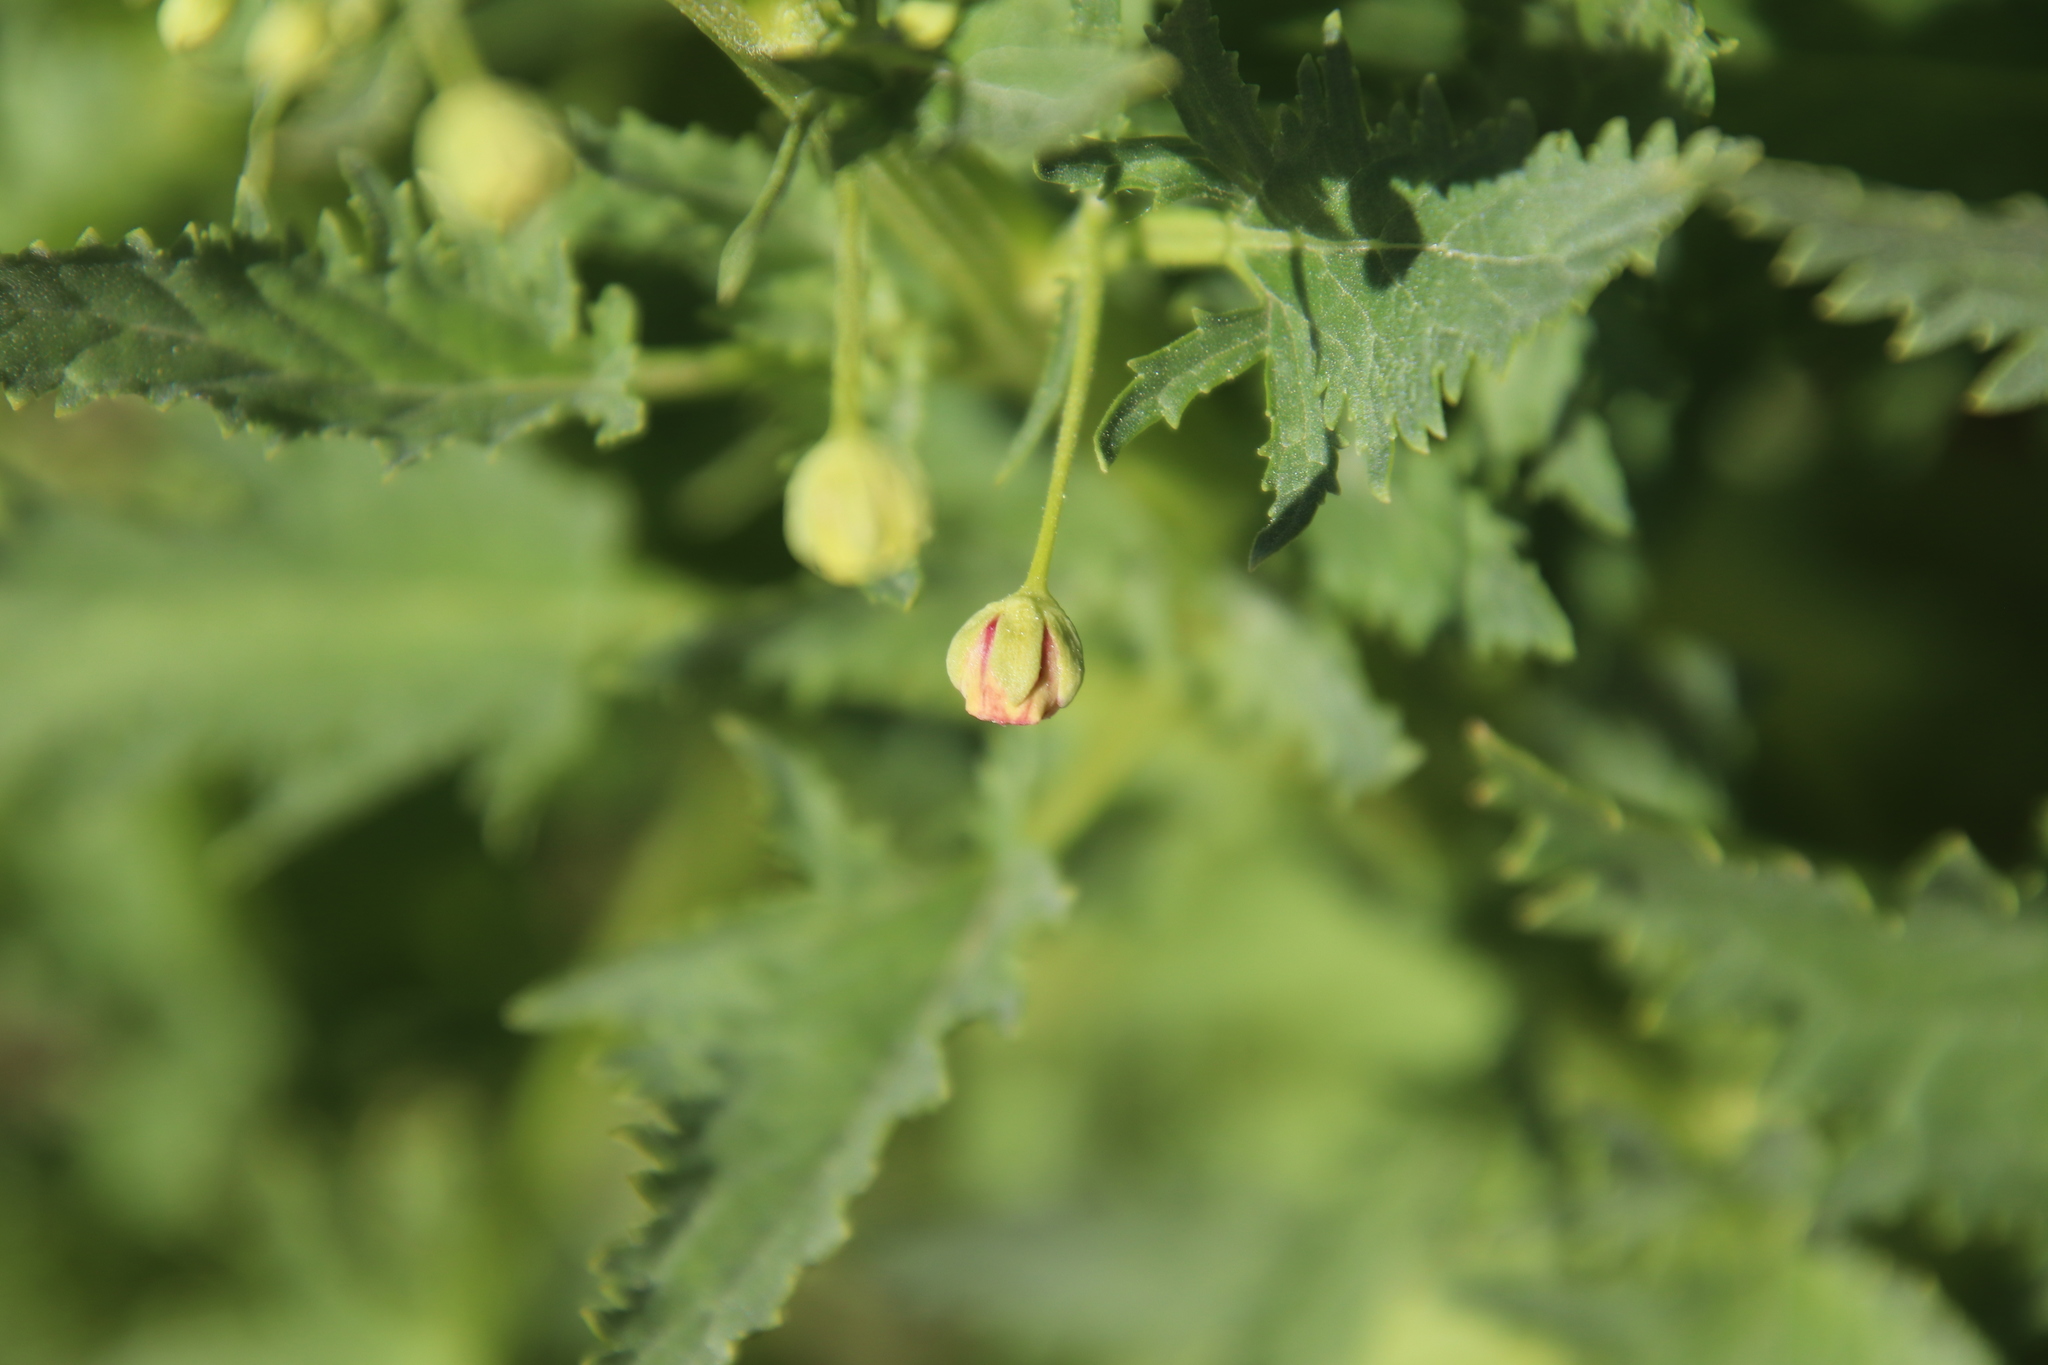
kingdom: Plantae
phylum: Tracheophyta
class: Magnoliopsida
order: Lamiales
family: Scrophulariaceae
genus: Scrophularia
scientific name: Scrophularia californica
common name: California figwort
